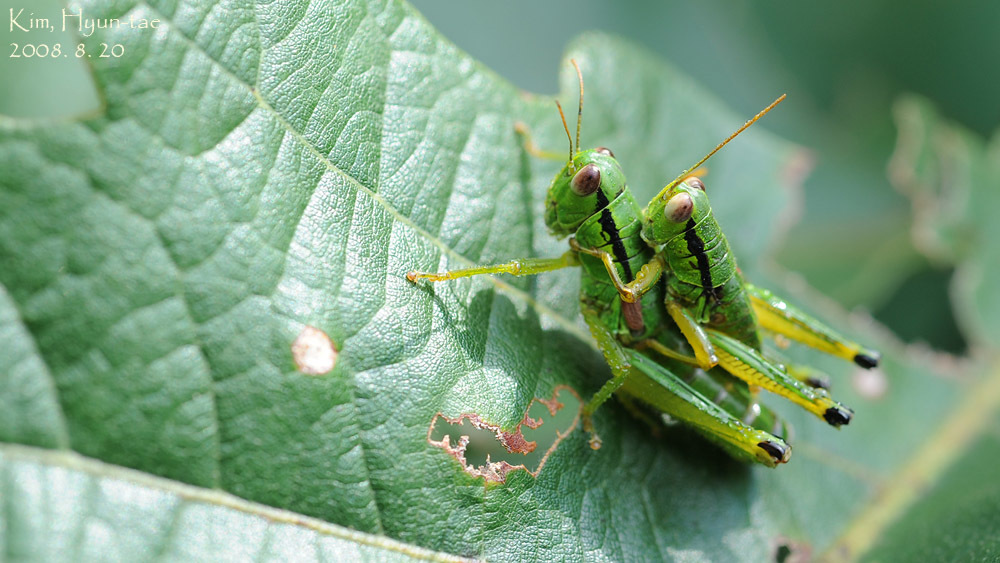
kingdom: Animalia
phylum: Arthropoda
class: Insecta
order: Orthoptera
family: Acrididae
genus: Anapodisma
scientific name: Anapodisma beybienkoi
